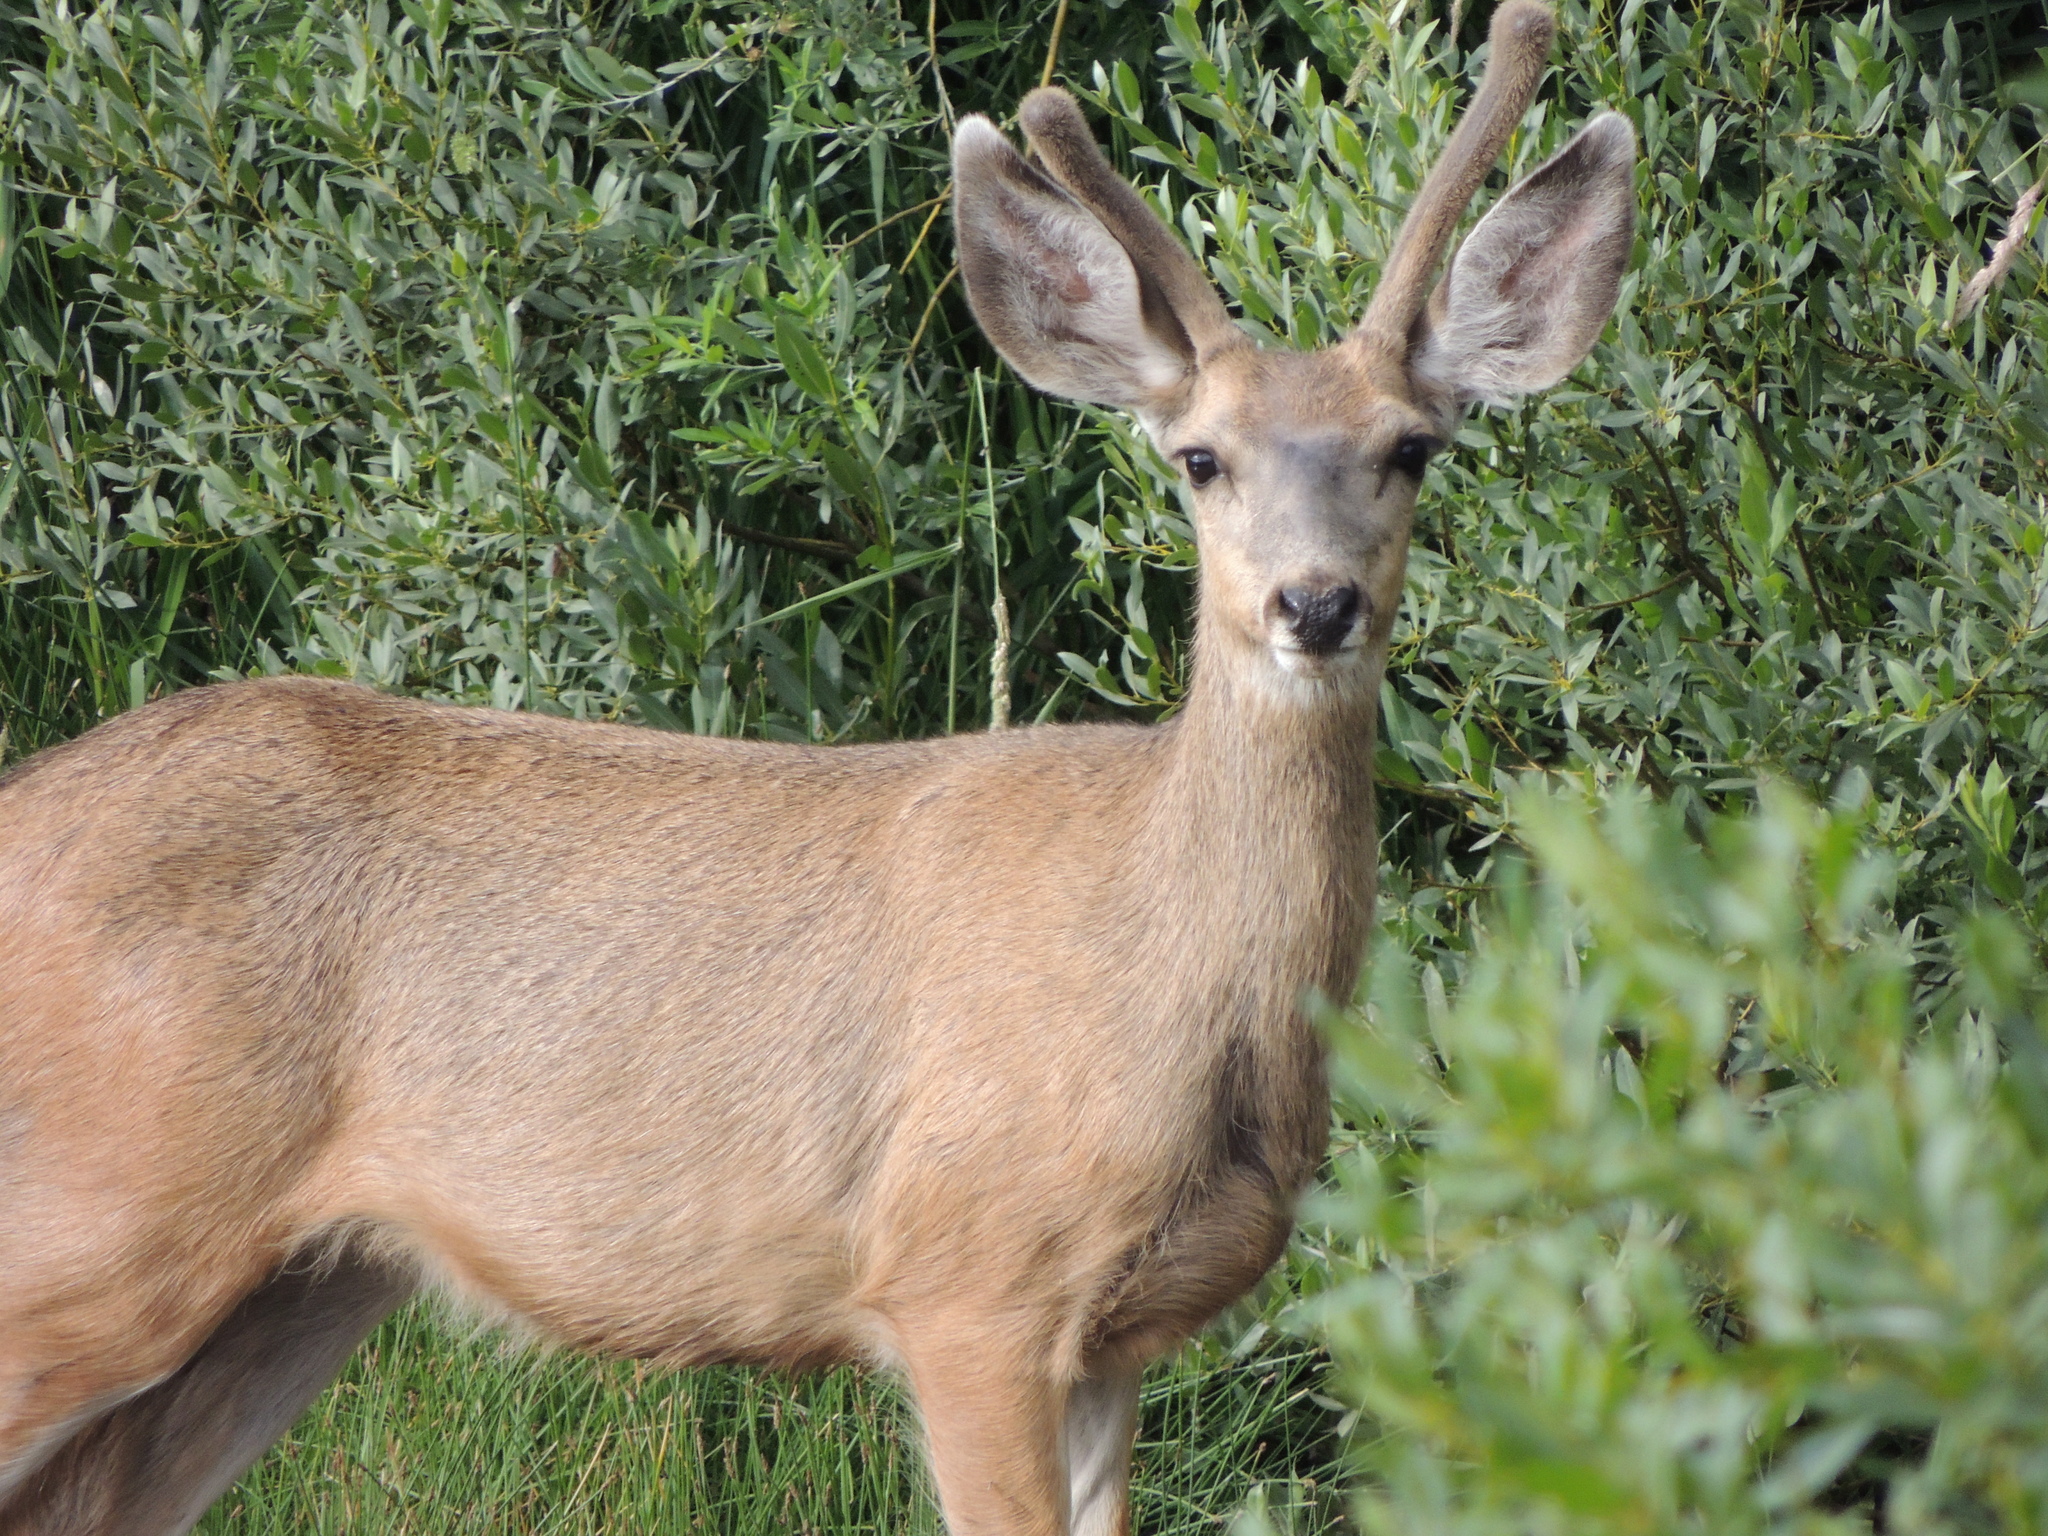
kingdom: Animalia
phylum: Chordata
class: Mammalia
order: Artiodactyla
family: Cervidae
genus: Odocoileus
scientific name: Odocoileus hemionus
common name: Mule deer
